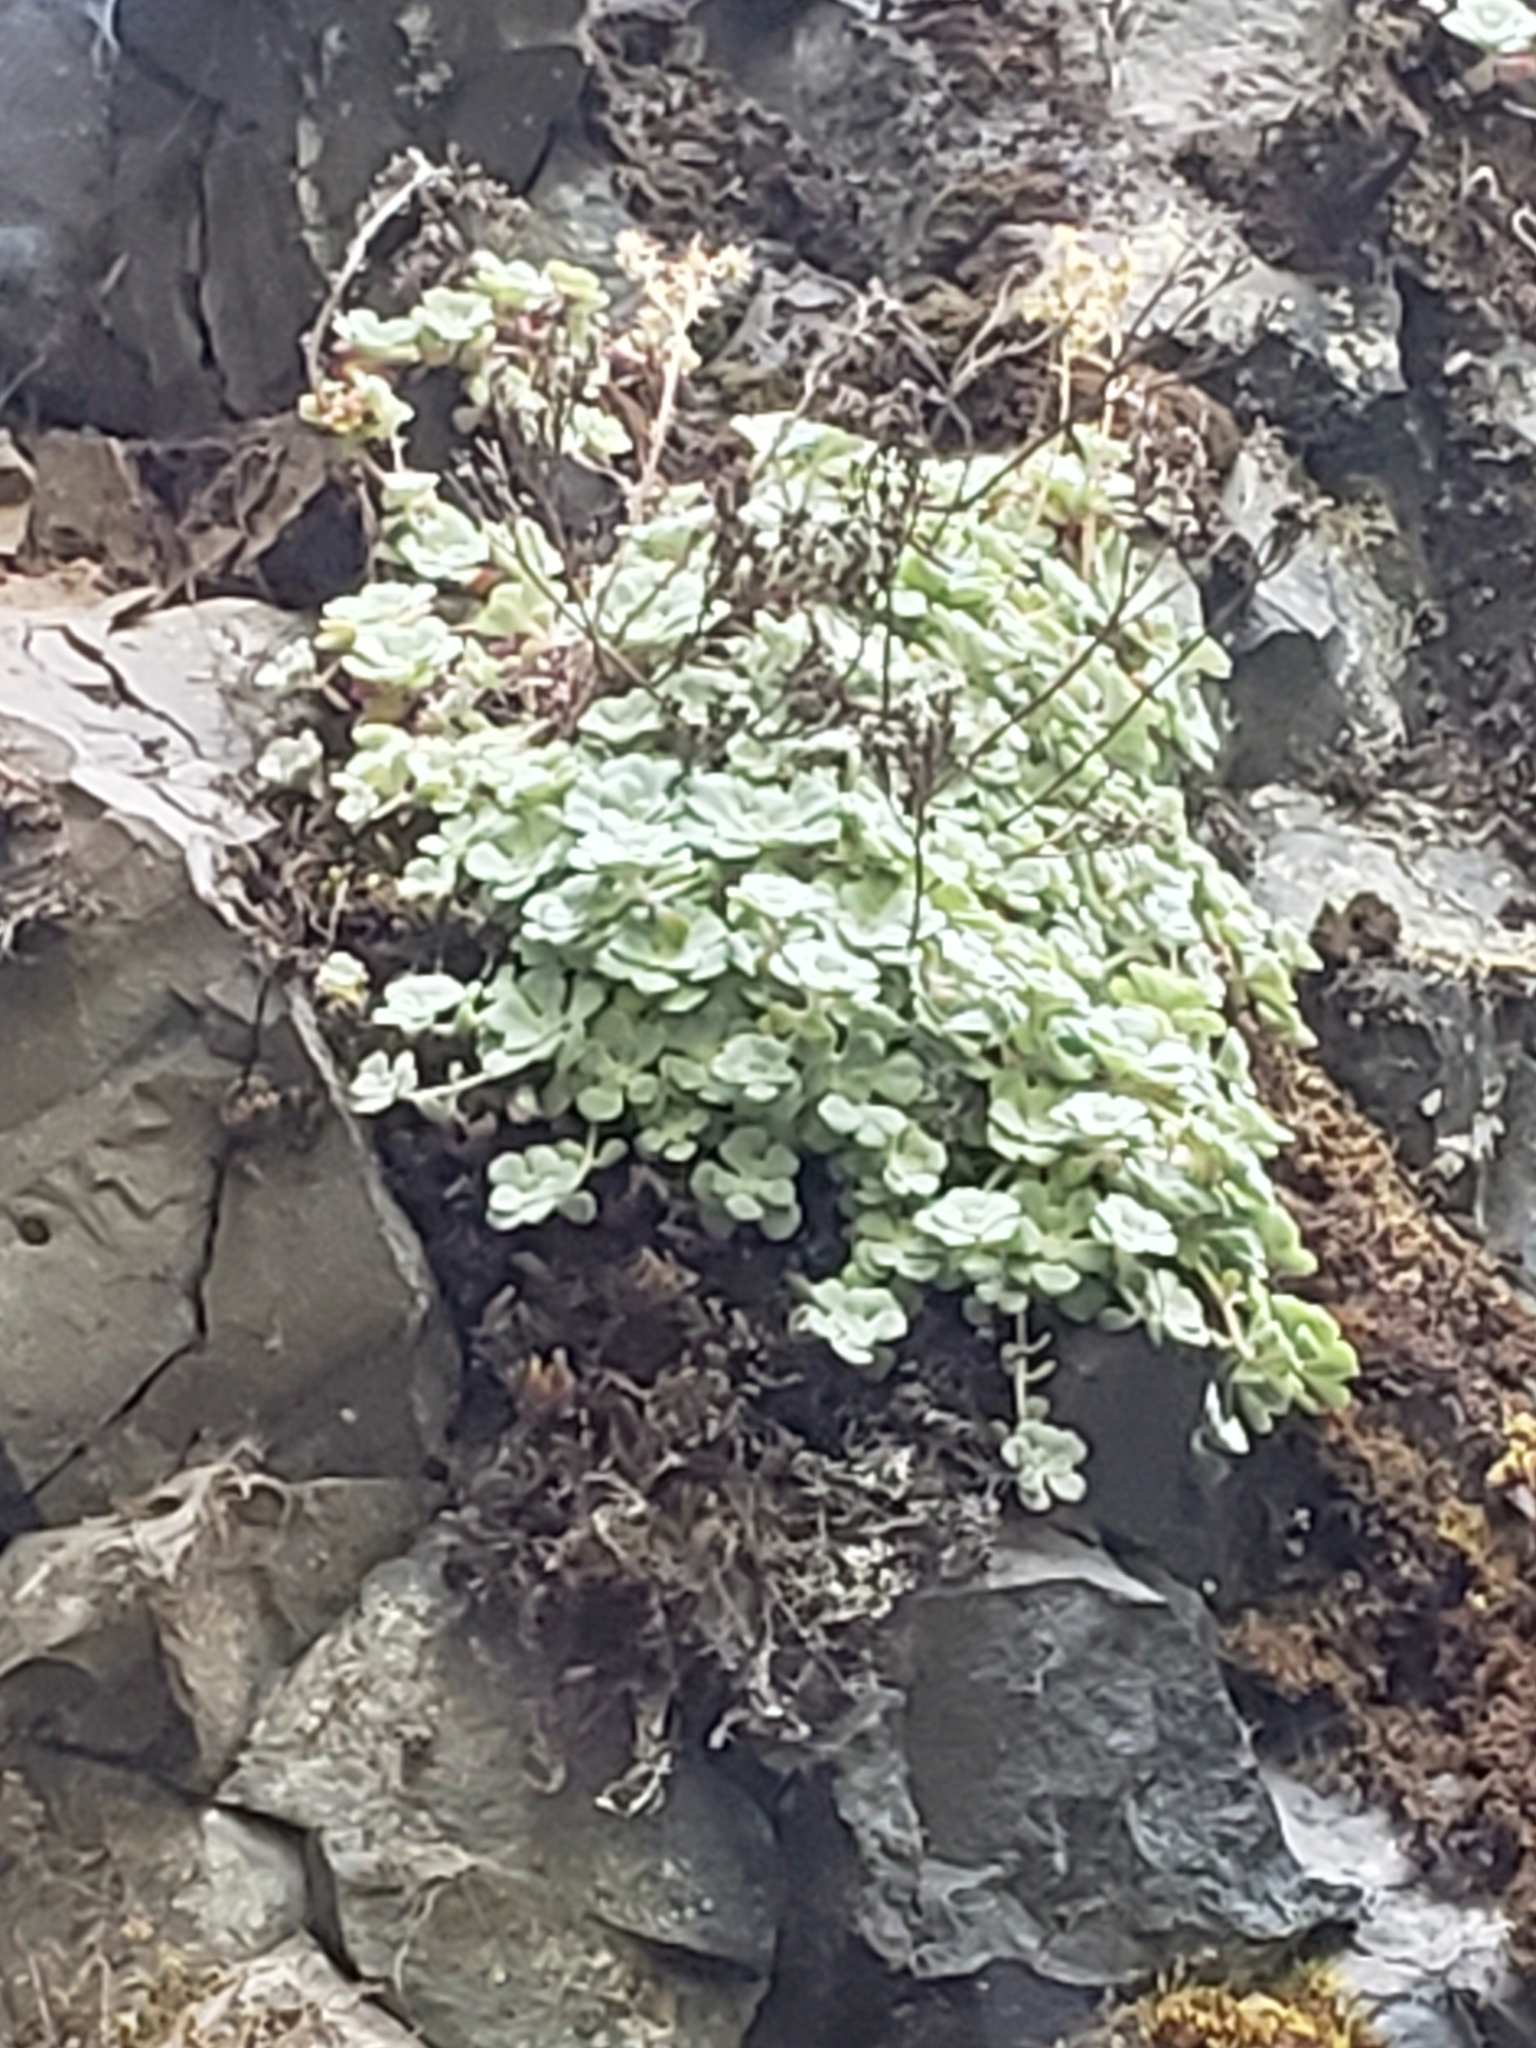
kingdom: Plantae
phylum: Tracheophyta
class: Magnoliopsida
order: Saxifragales
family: Crassulaceae
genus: Sedum
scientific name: Sedum spathulifolium
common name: Colorado stonecrop
